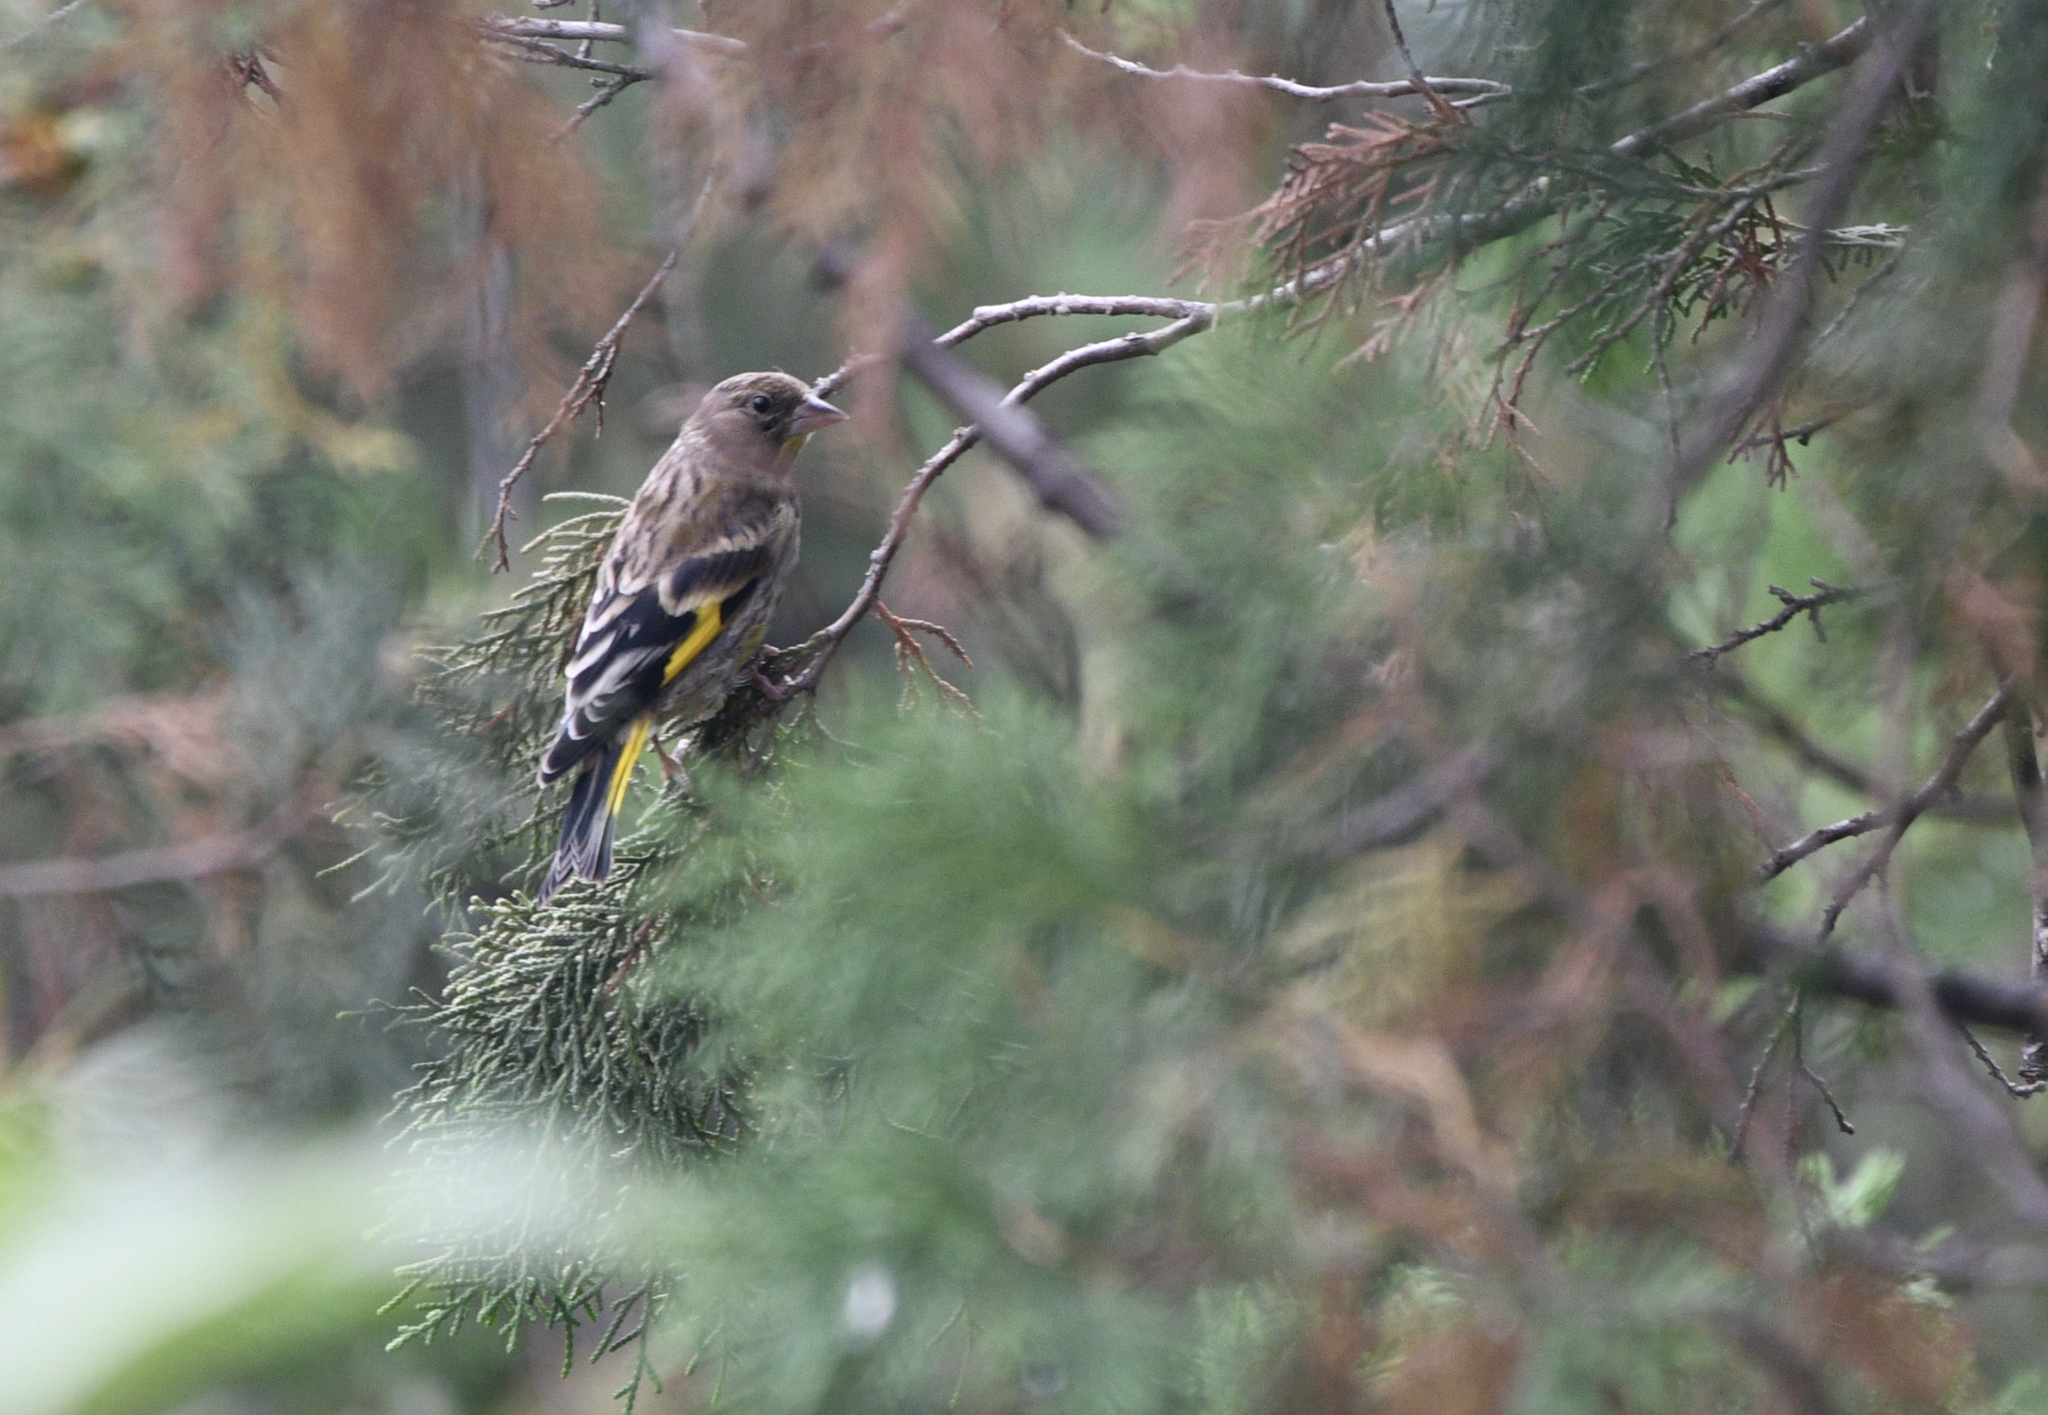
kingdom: Plantae
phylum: Tracheophyta
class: Liliopsida
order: Poales
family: Poaceae
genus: Chloris
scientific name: Chloris sinica
